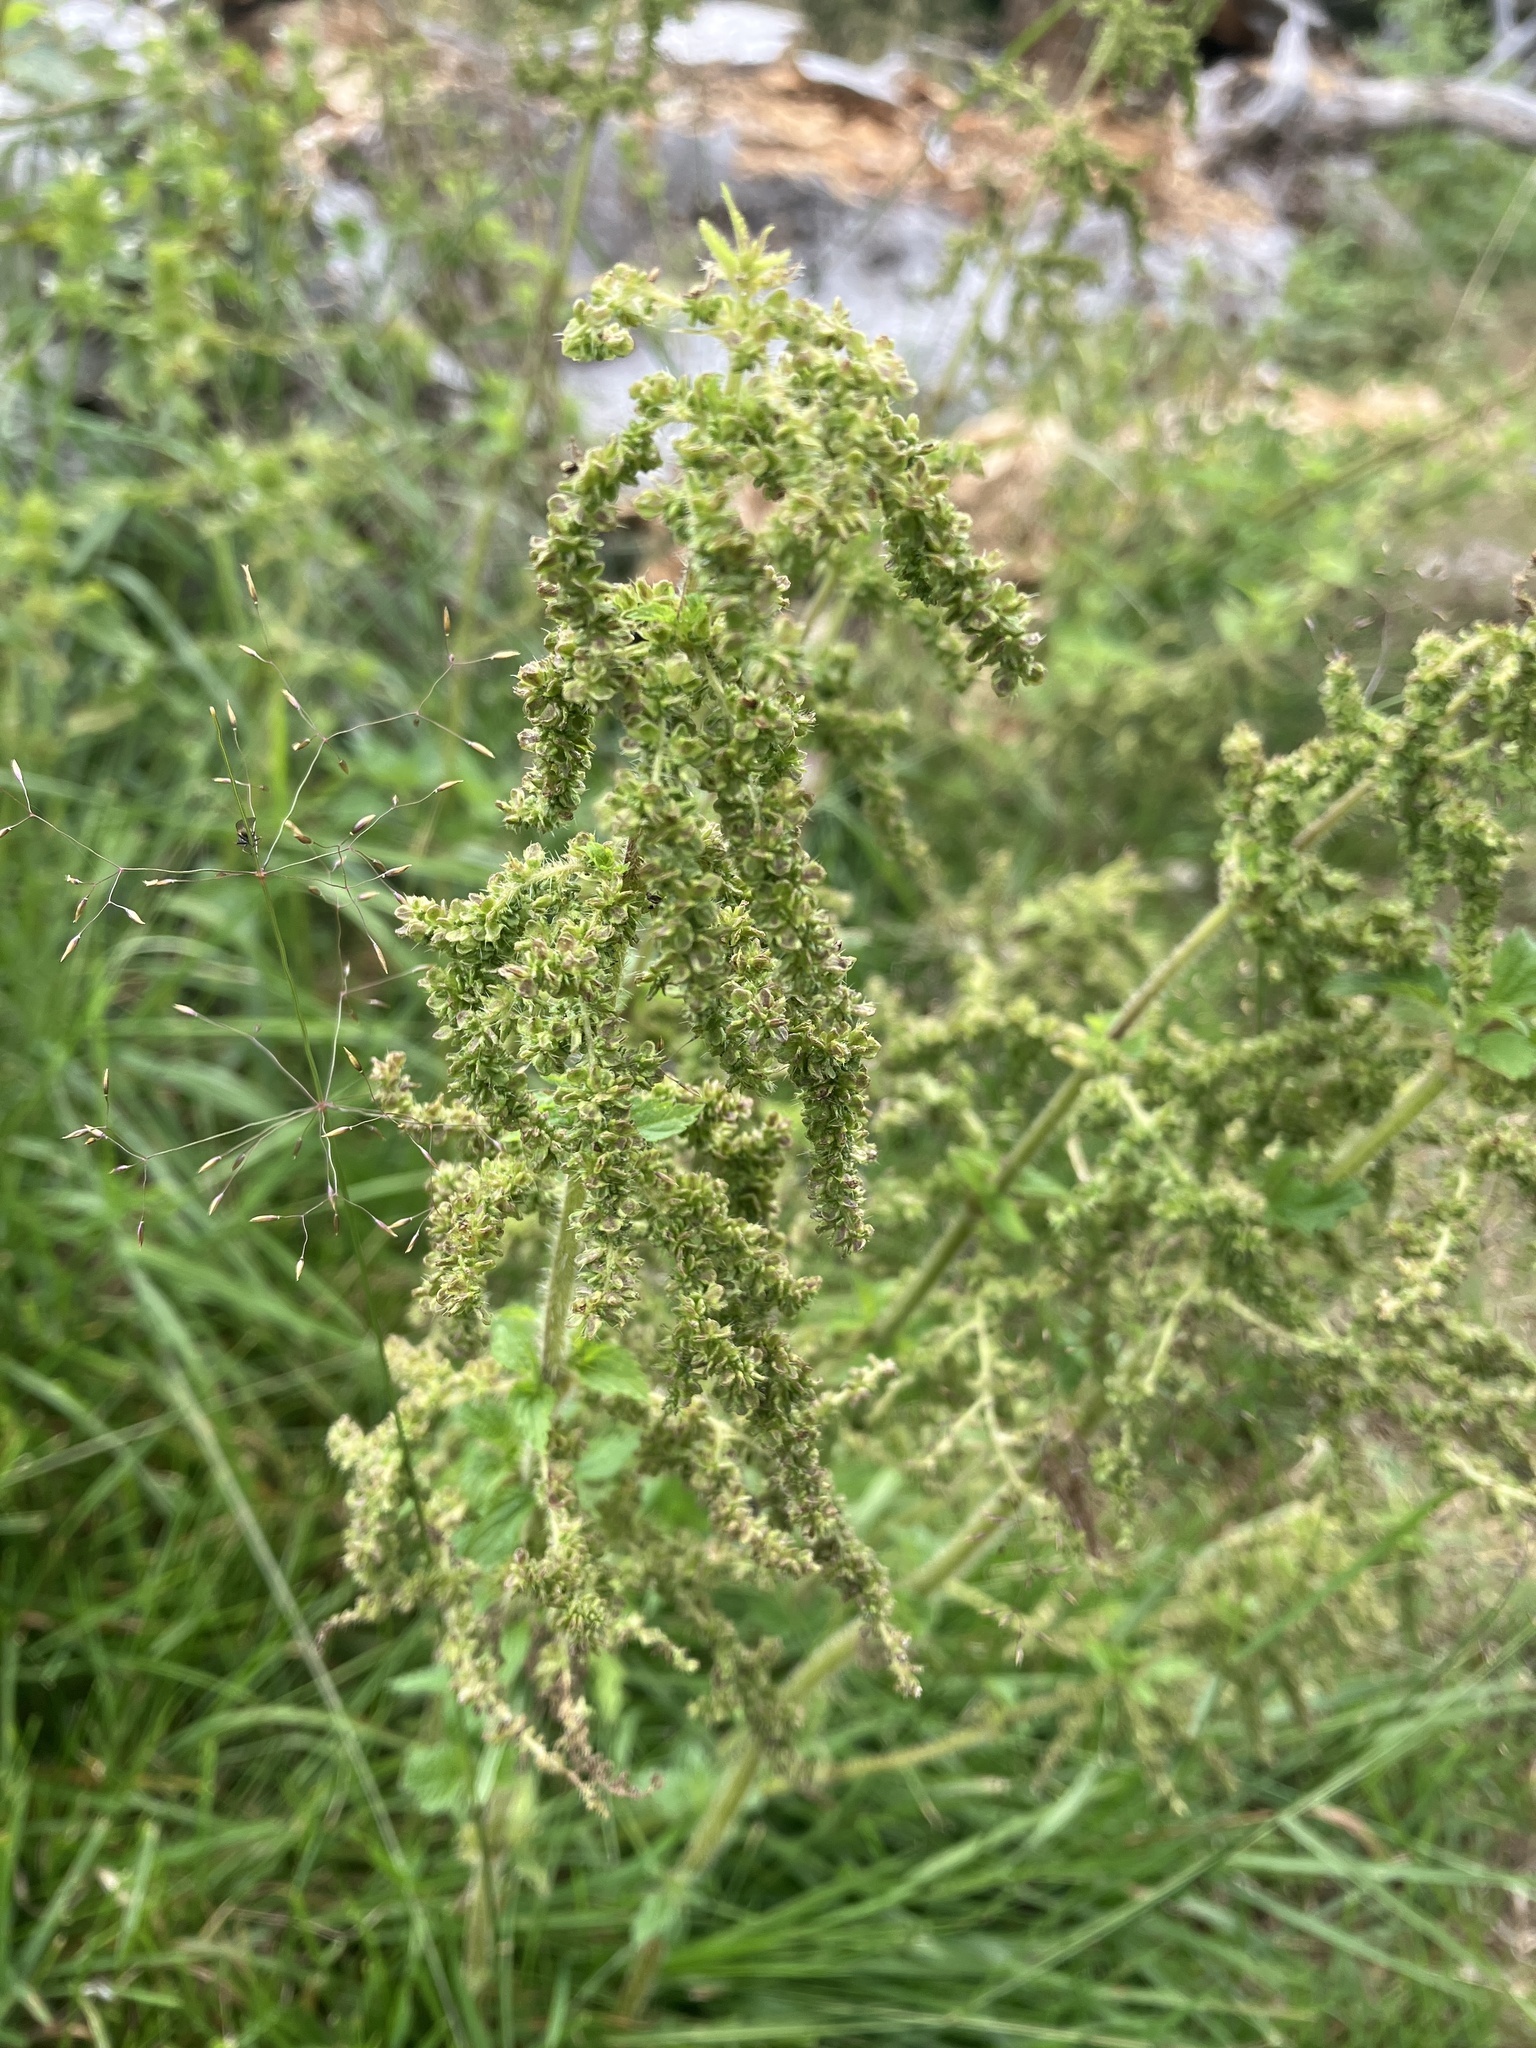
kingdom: Plantae
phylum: Tracheophyta
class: Magnoliopsida
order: Rosales
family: Urticaceae
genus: Urtica
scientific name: Urtica dioica
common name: Common nettle
